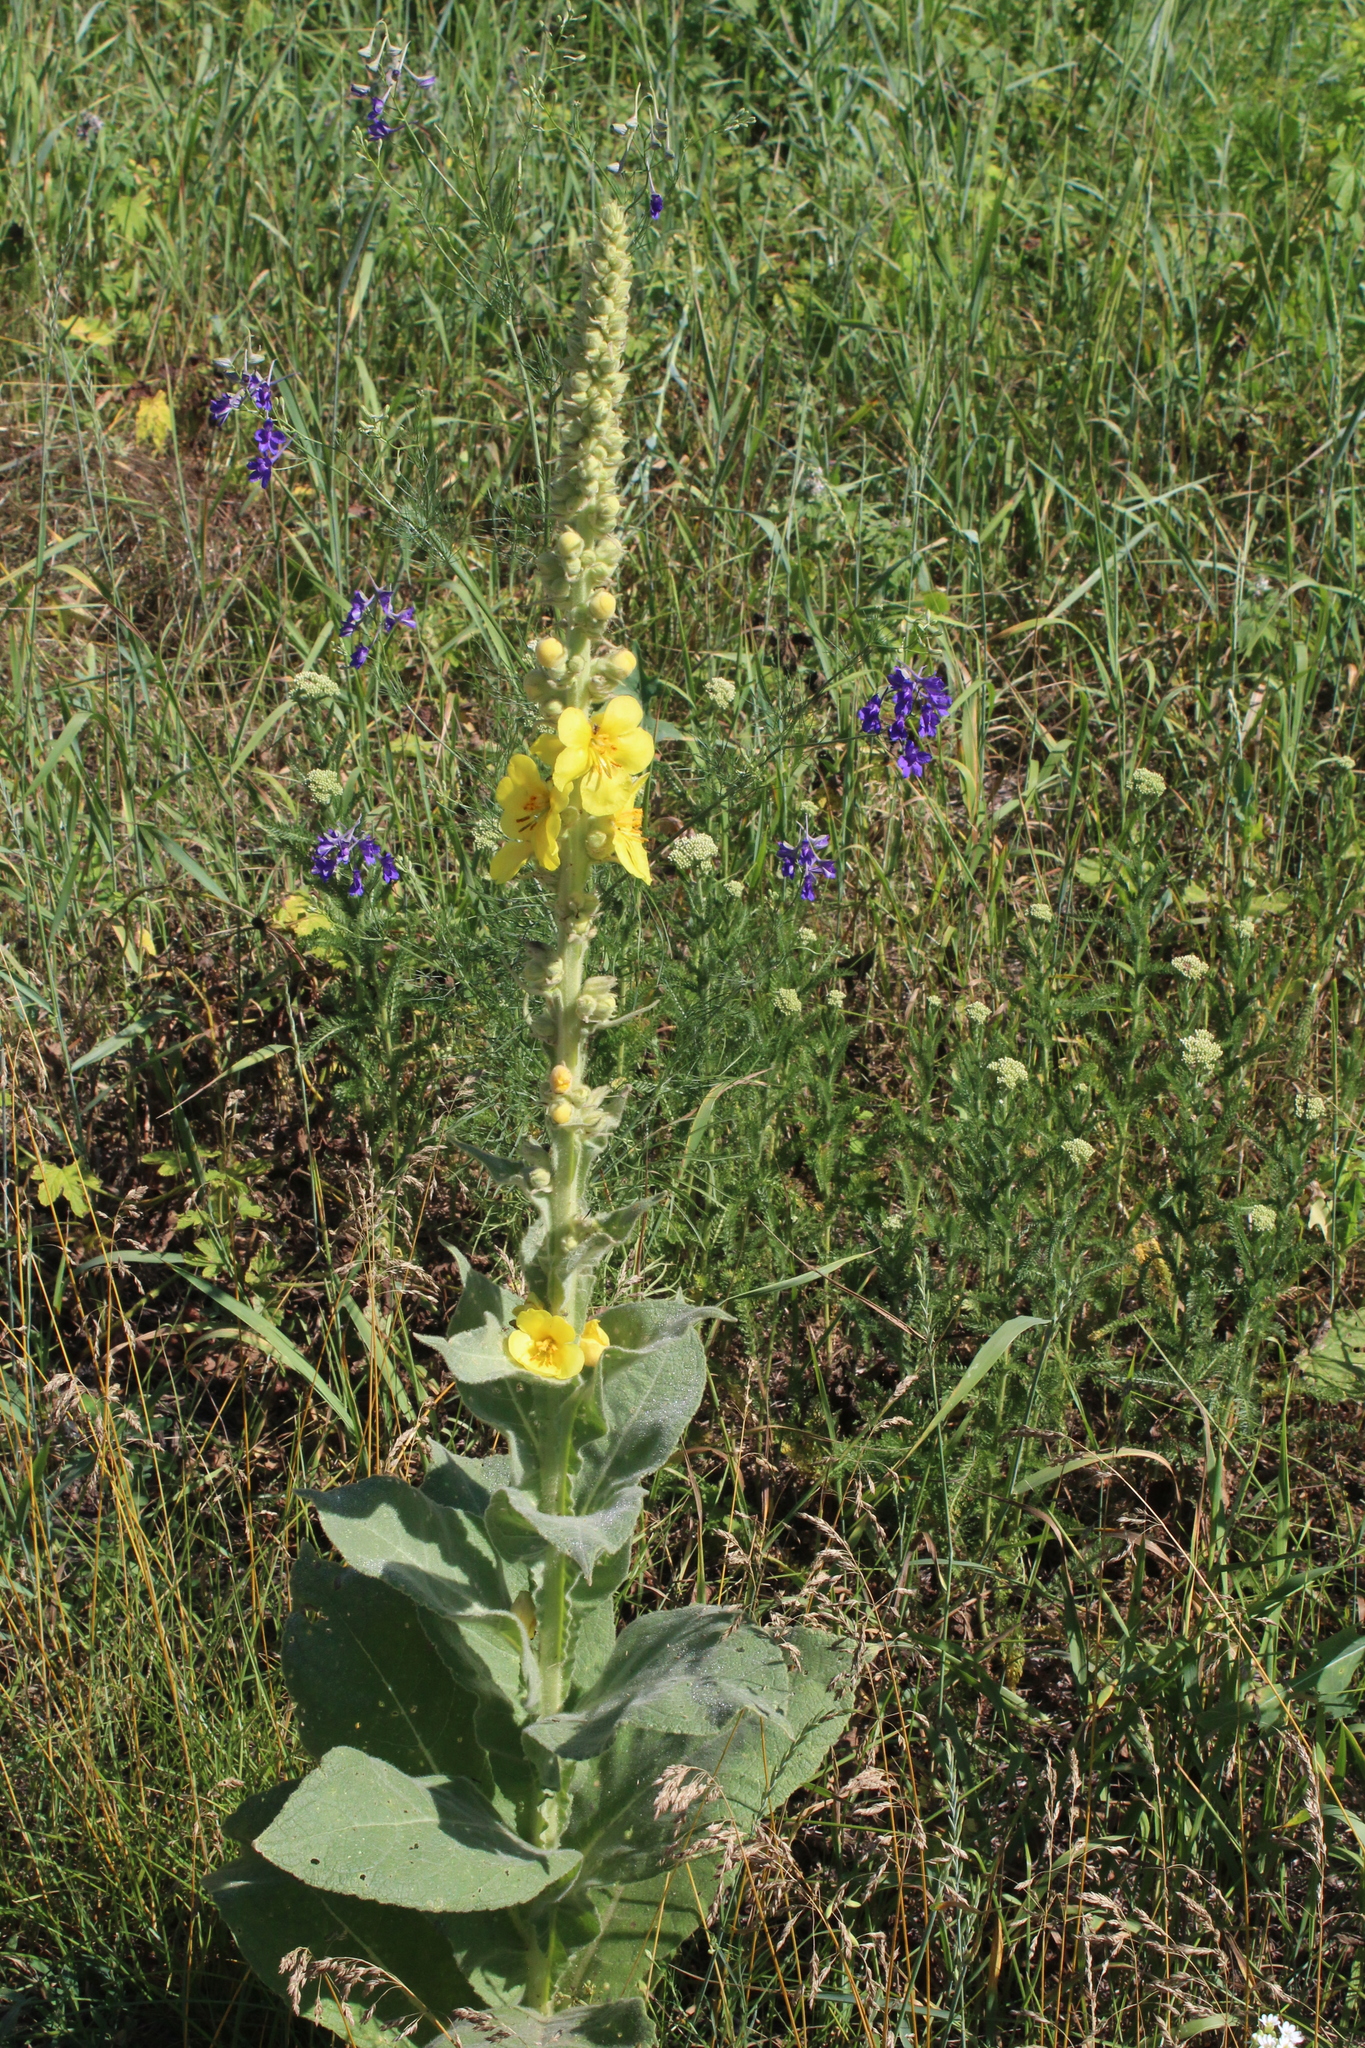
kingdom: Plantae
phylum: Tracheophyta
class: Magnoliopsida
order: Lamiales
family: Scrophulariaceae
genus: Verbascum
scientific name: Verbascum densiflorum
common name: Dense-flowered mullein
